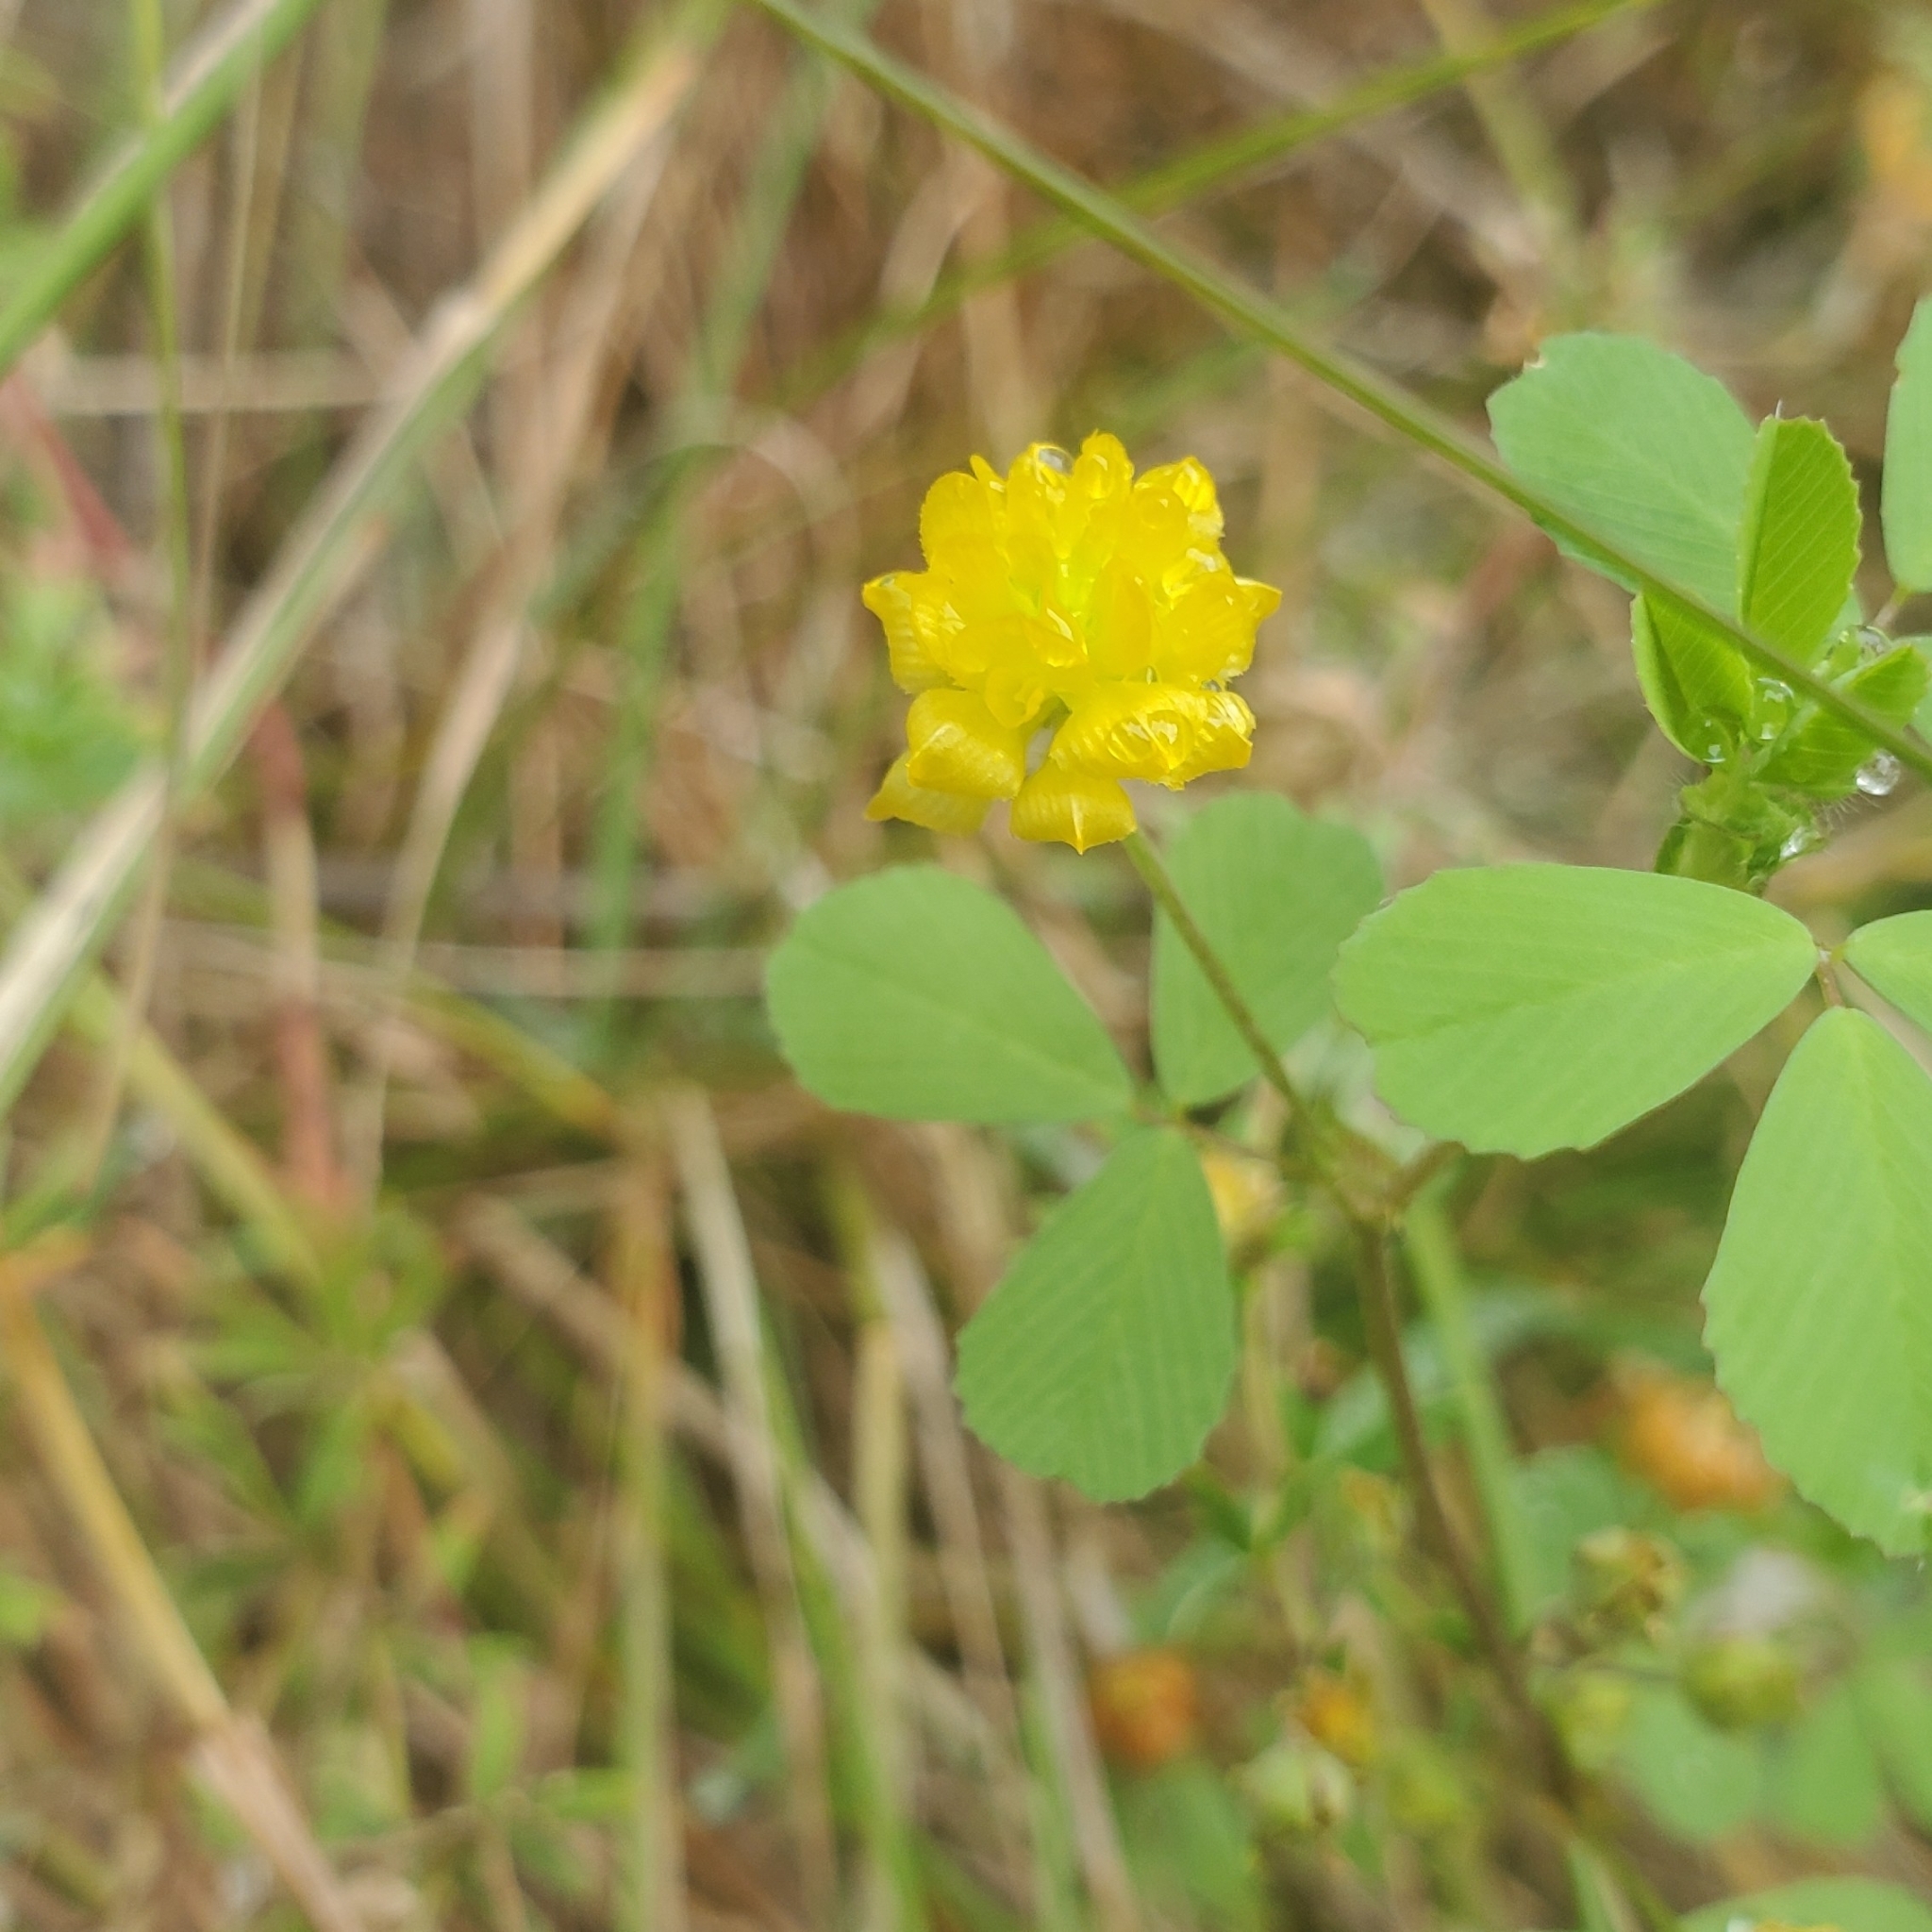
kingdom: Plantae
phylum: Tracheophyta
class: Magnoliopsida
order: Fabales
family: Fabaceae
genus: Trifolium
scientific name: Trifolium campestre
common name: Field clover
